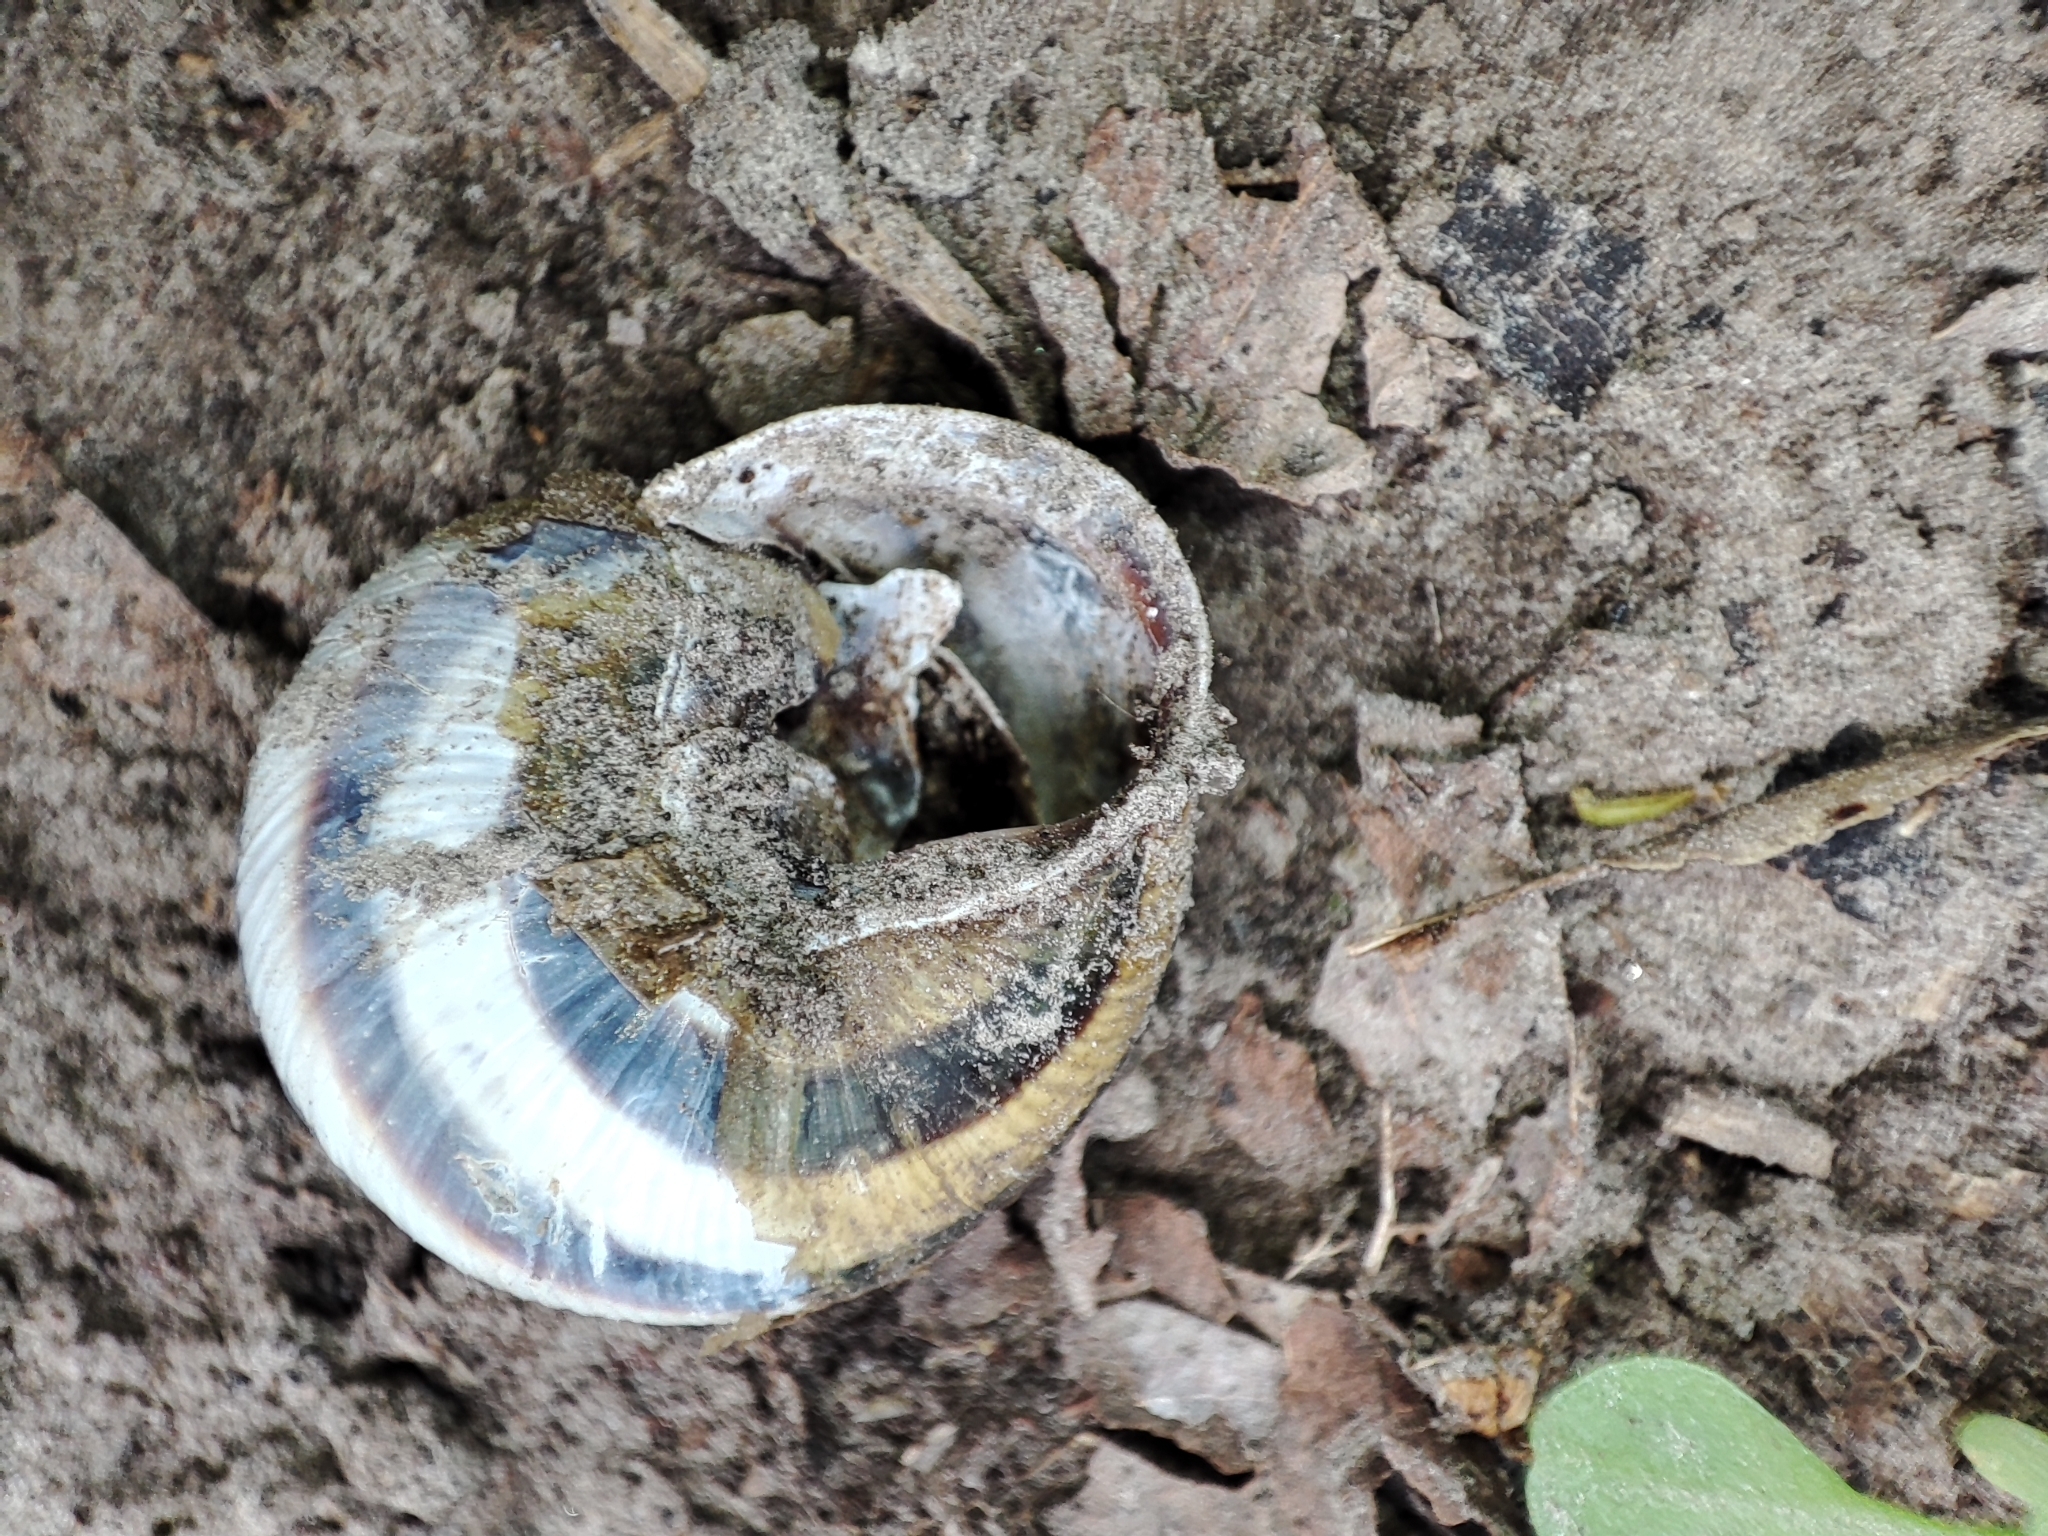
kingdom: Animalia
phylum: Mollusca
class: Gastropoda
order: Stylommatophora
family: Helicidae
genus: Caucasotachea
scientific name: Caucasotachea vindobonensis
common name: European helicid land snail
